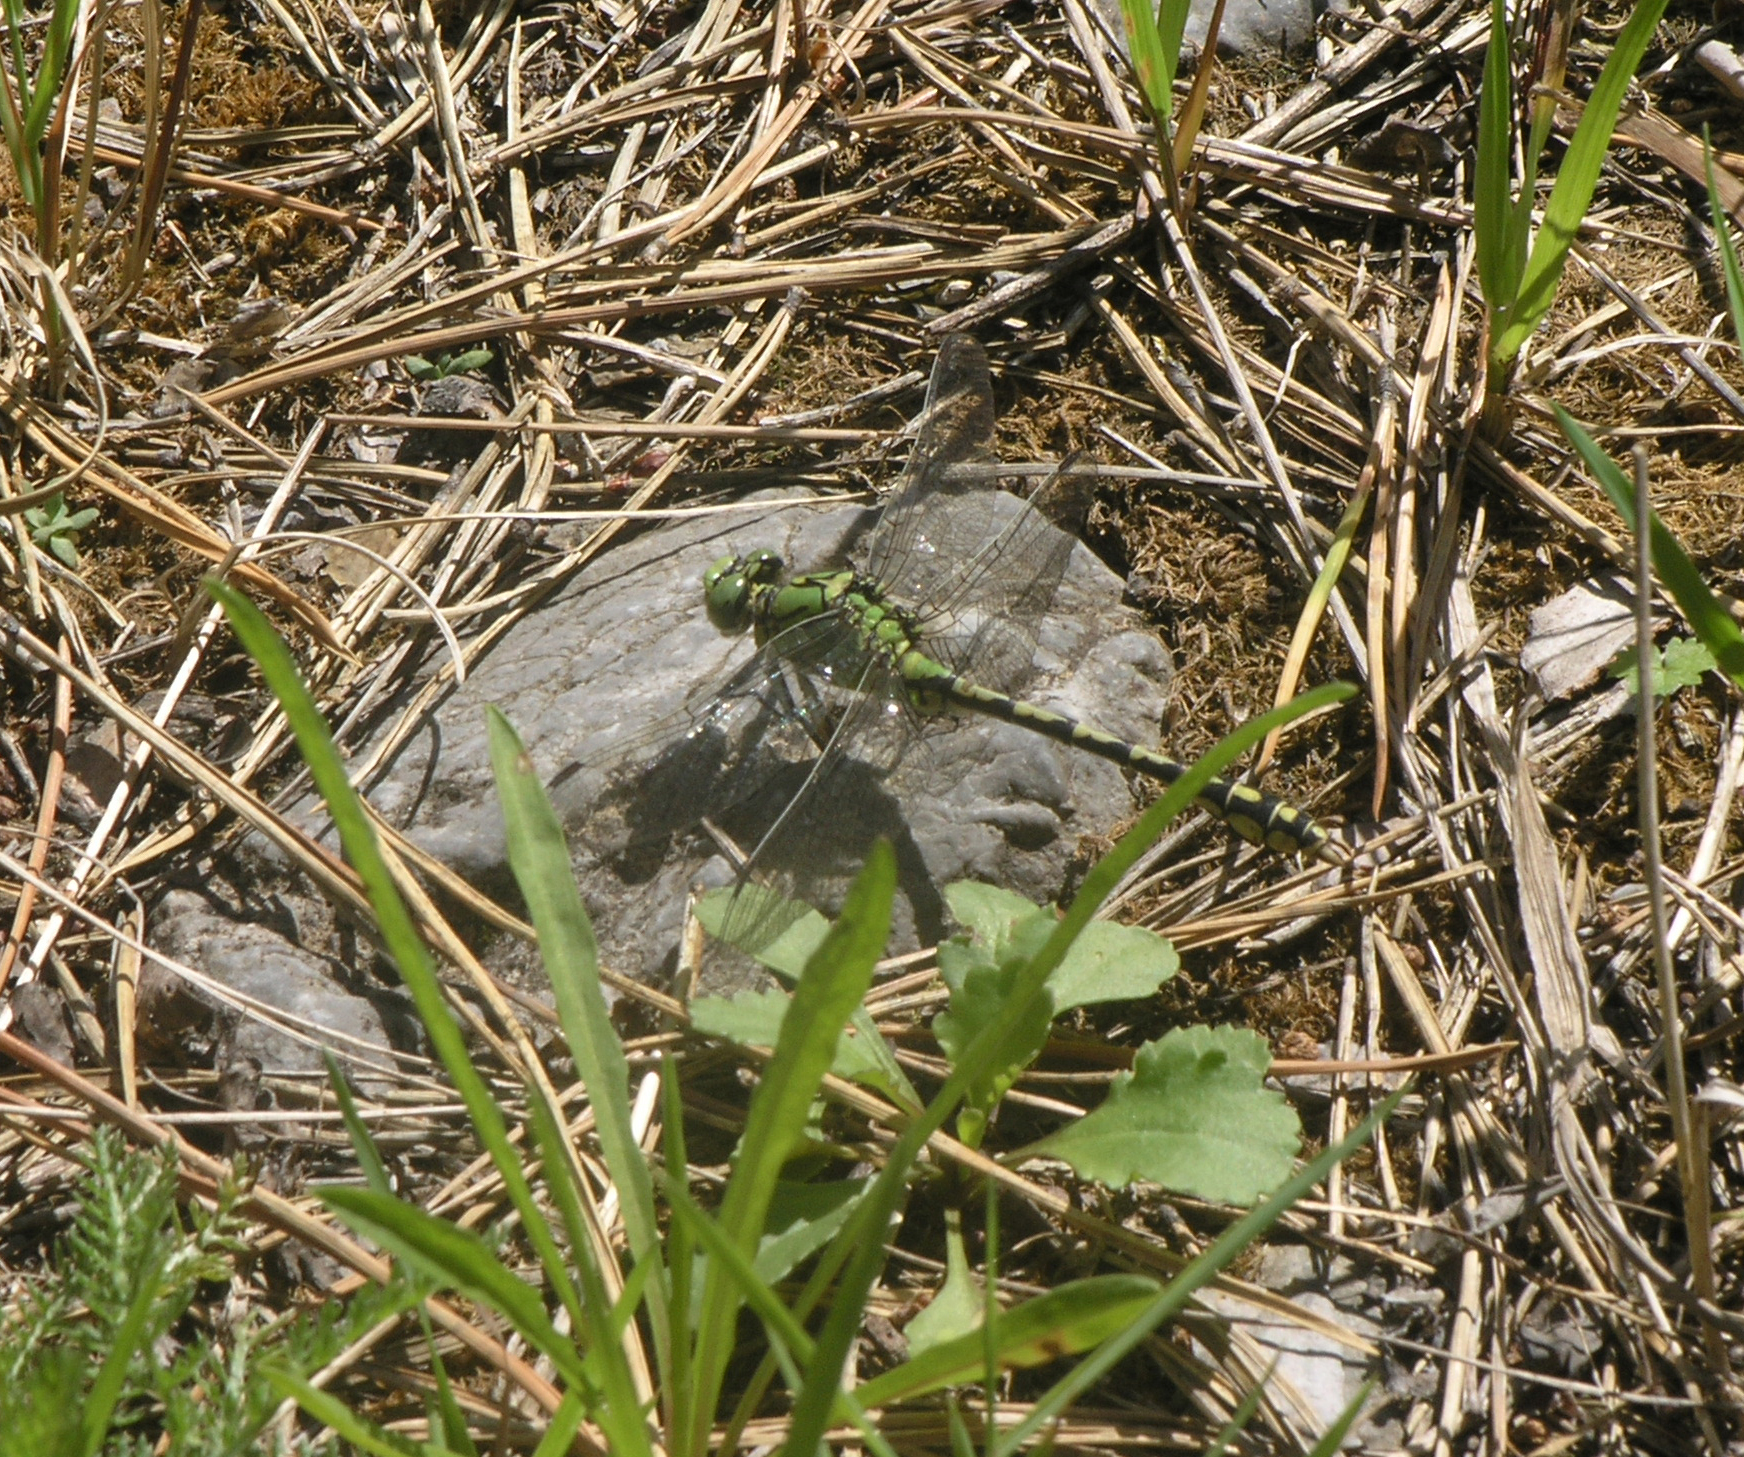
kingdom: Animalia
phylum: Arthropoda
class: Insecta
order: Odonata
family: Gomphidae
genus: Ophiogomphus
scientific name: Ophiogomphus cecilia
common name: Green snaketail
